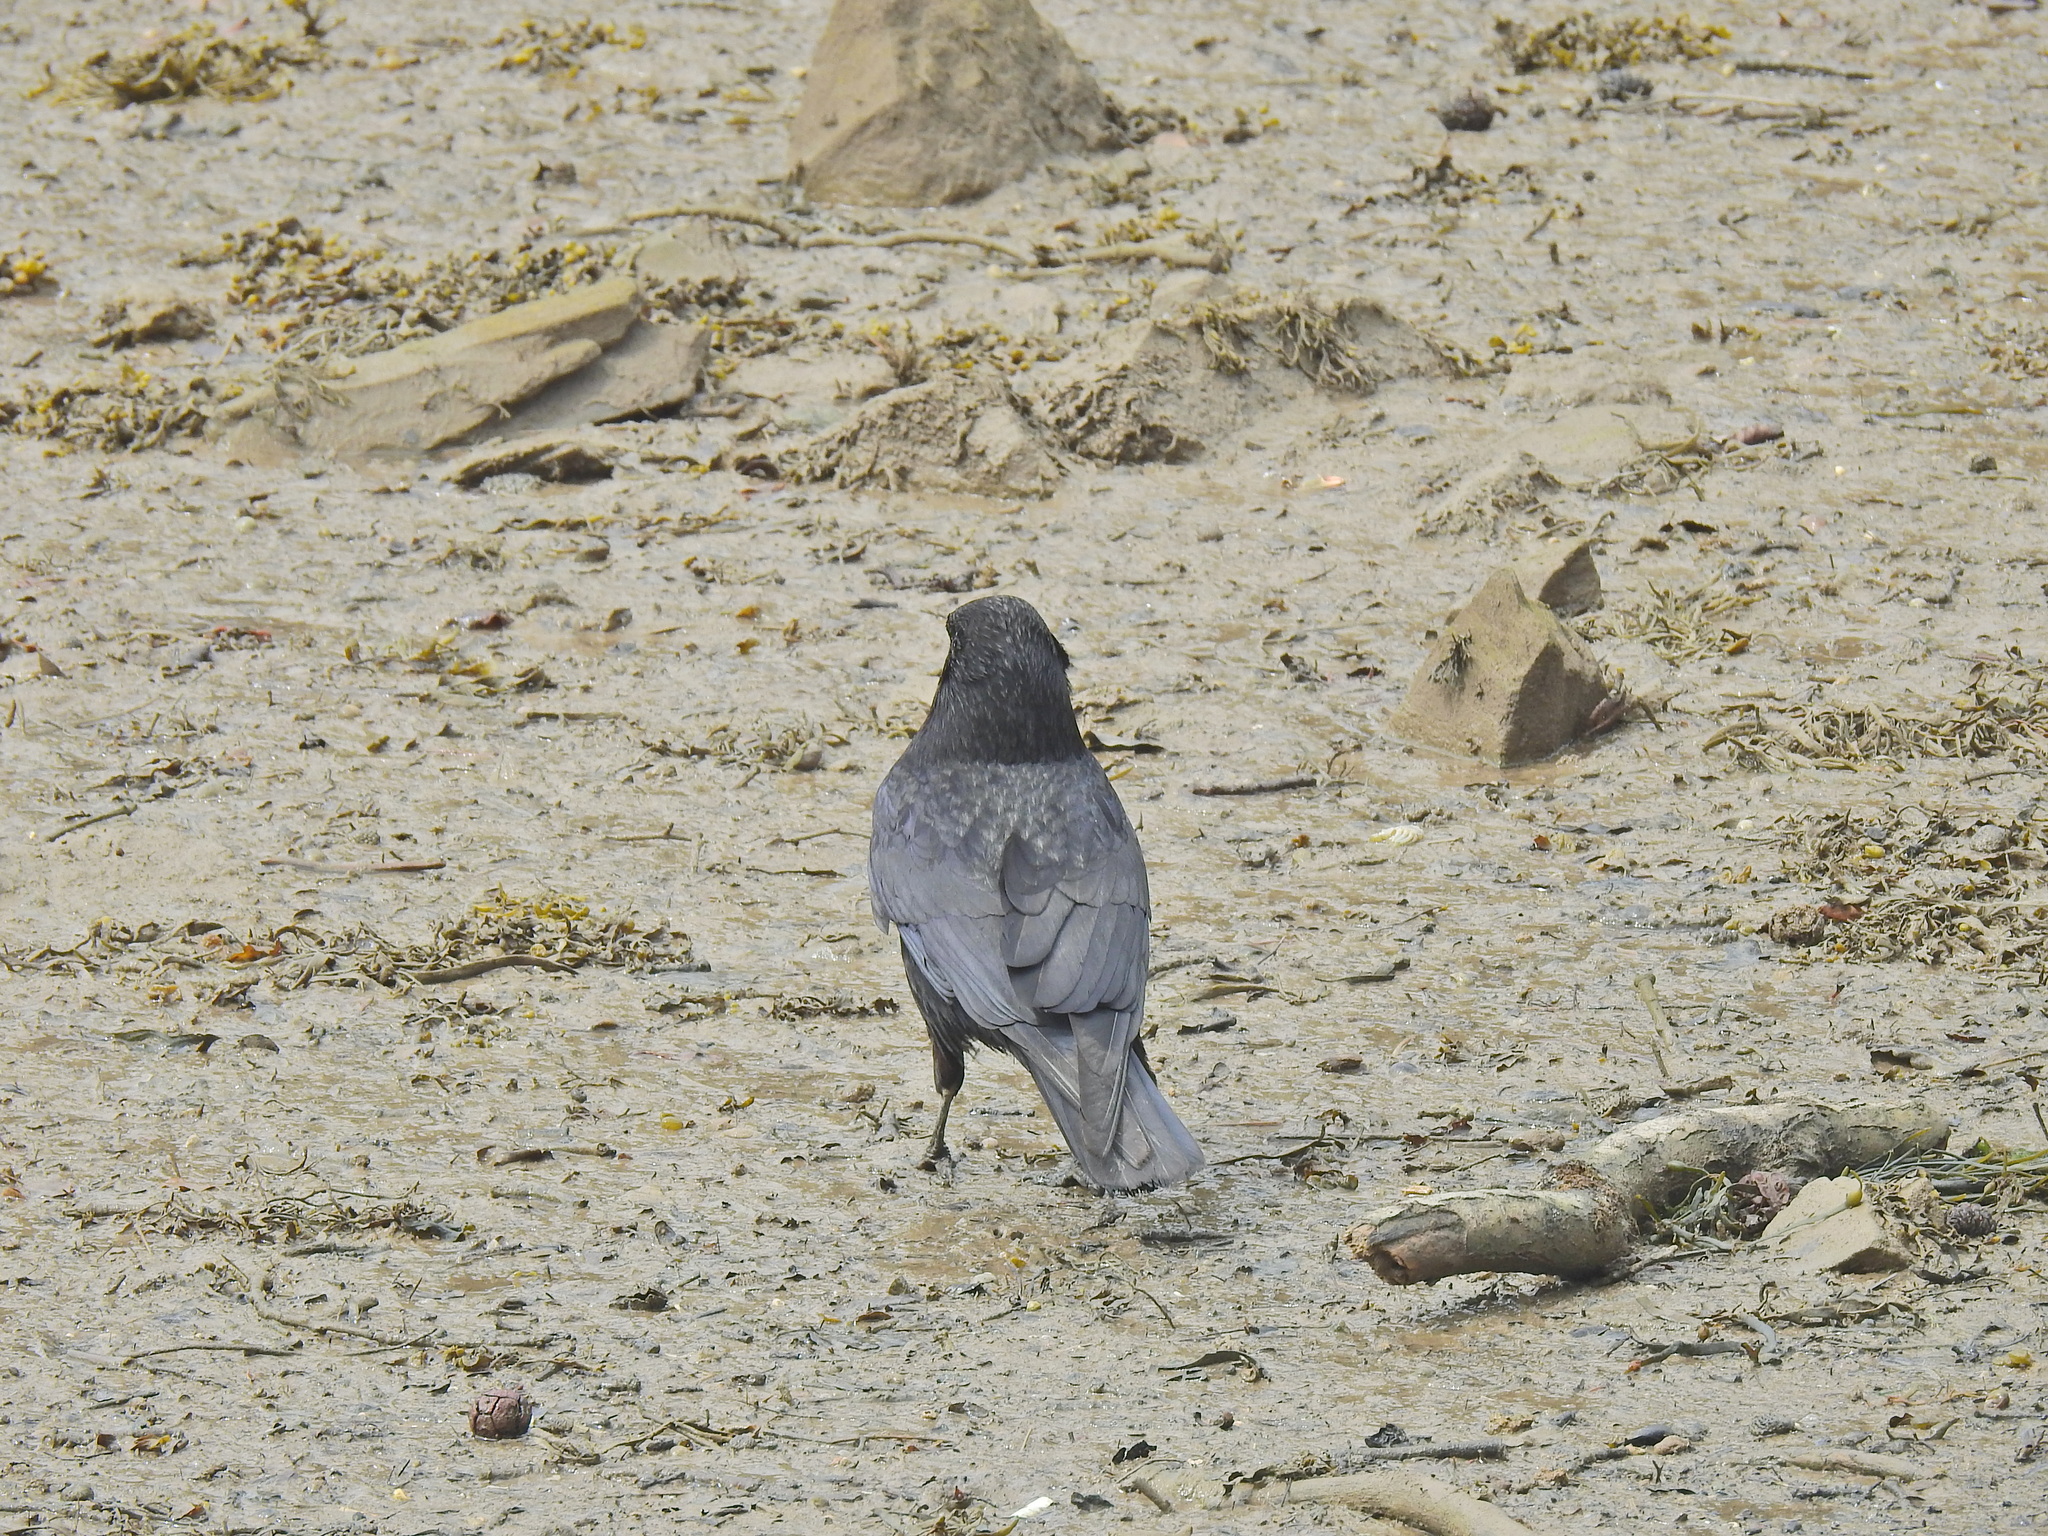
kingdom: Animalia
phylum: Chordata
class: Aves
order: Passeriformes
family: Corvidae
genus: Corvus
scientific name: Corvus corone
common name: Carrion crow
